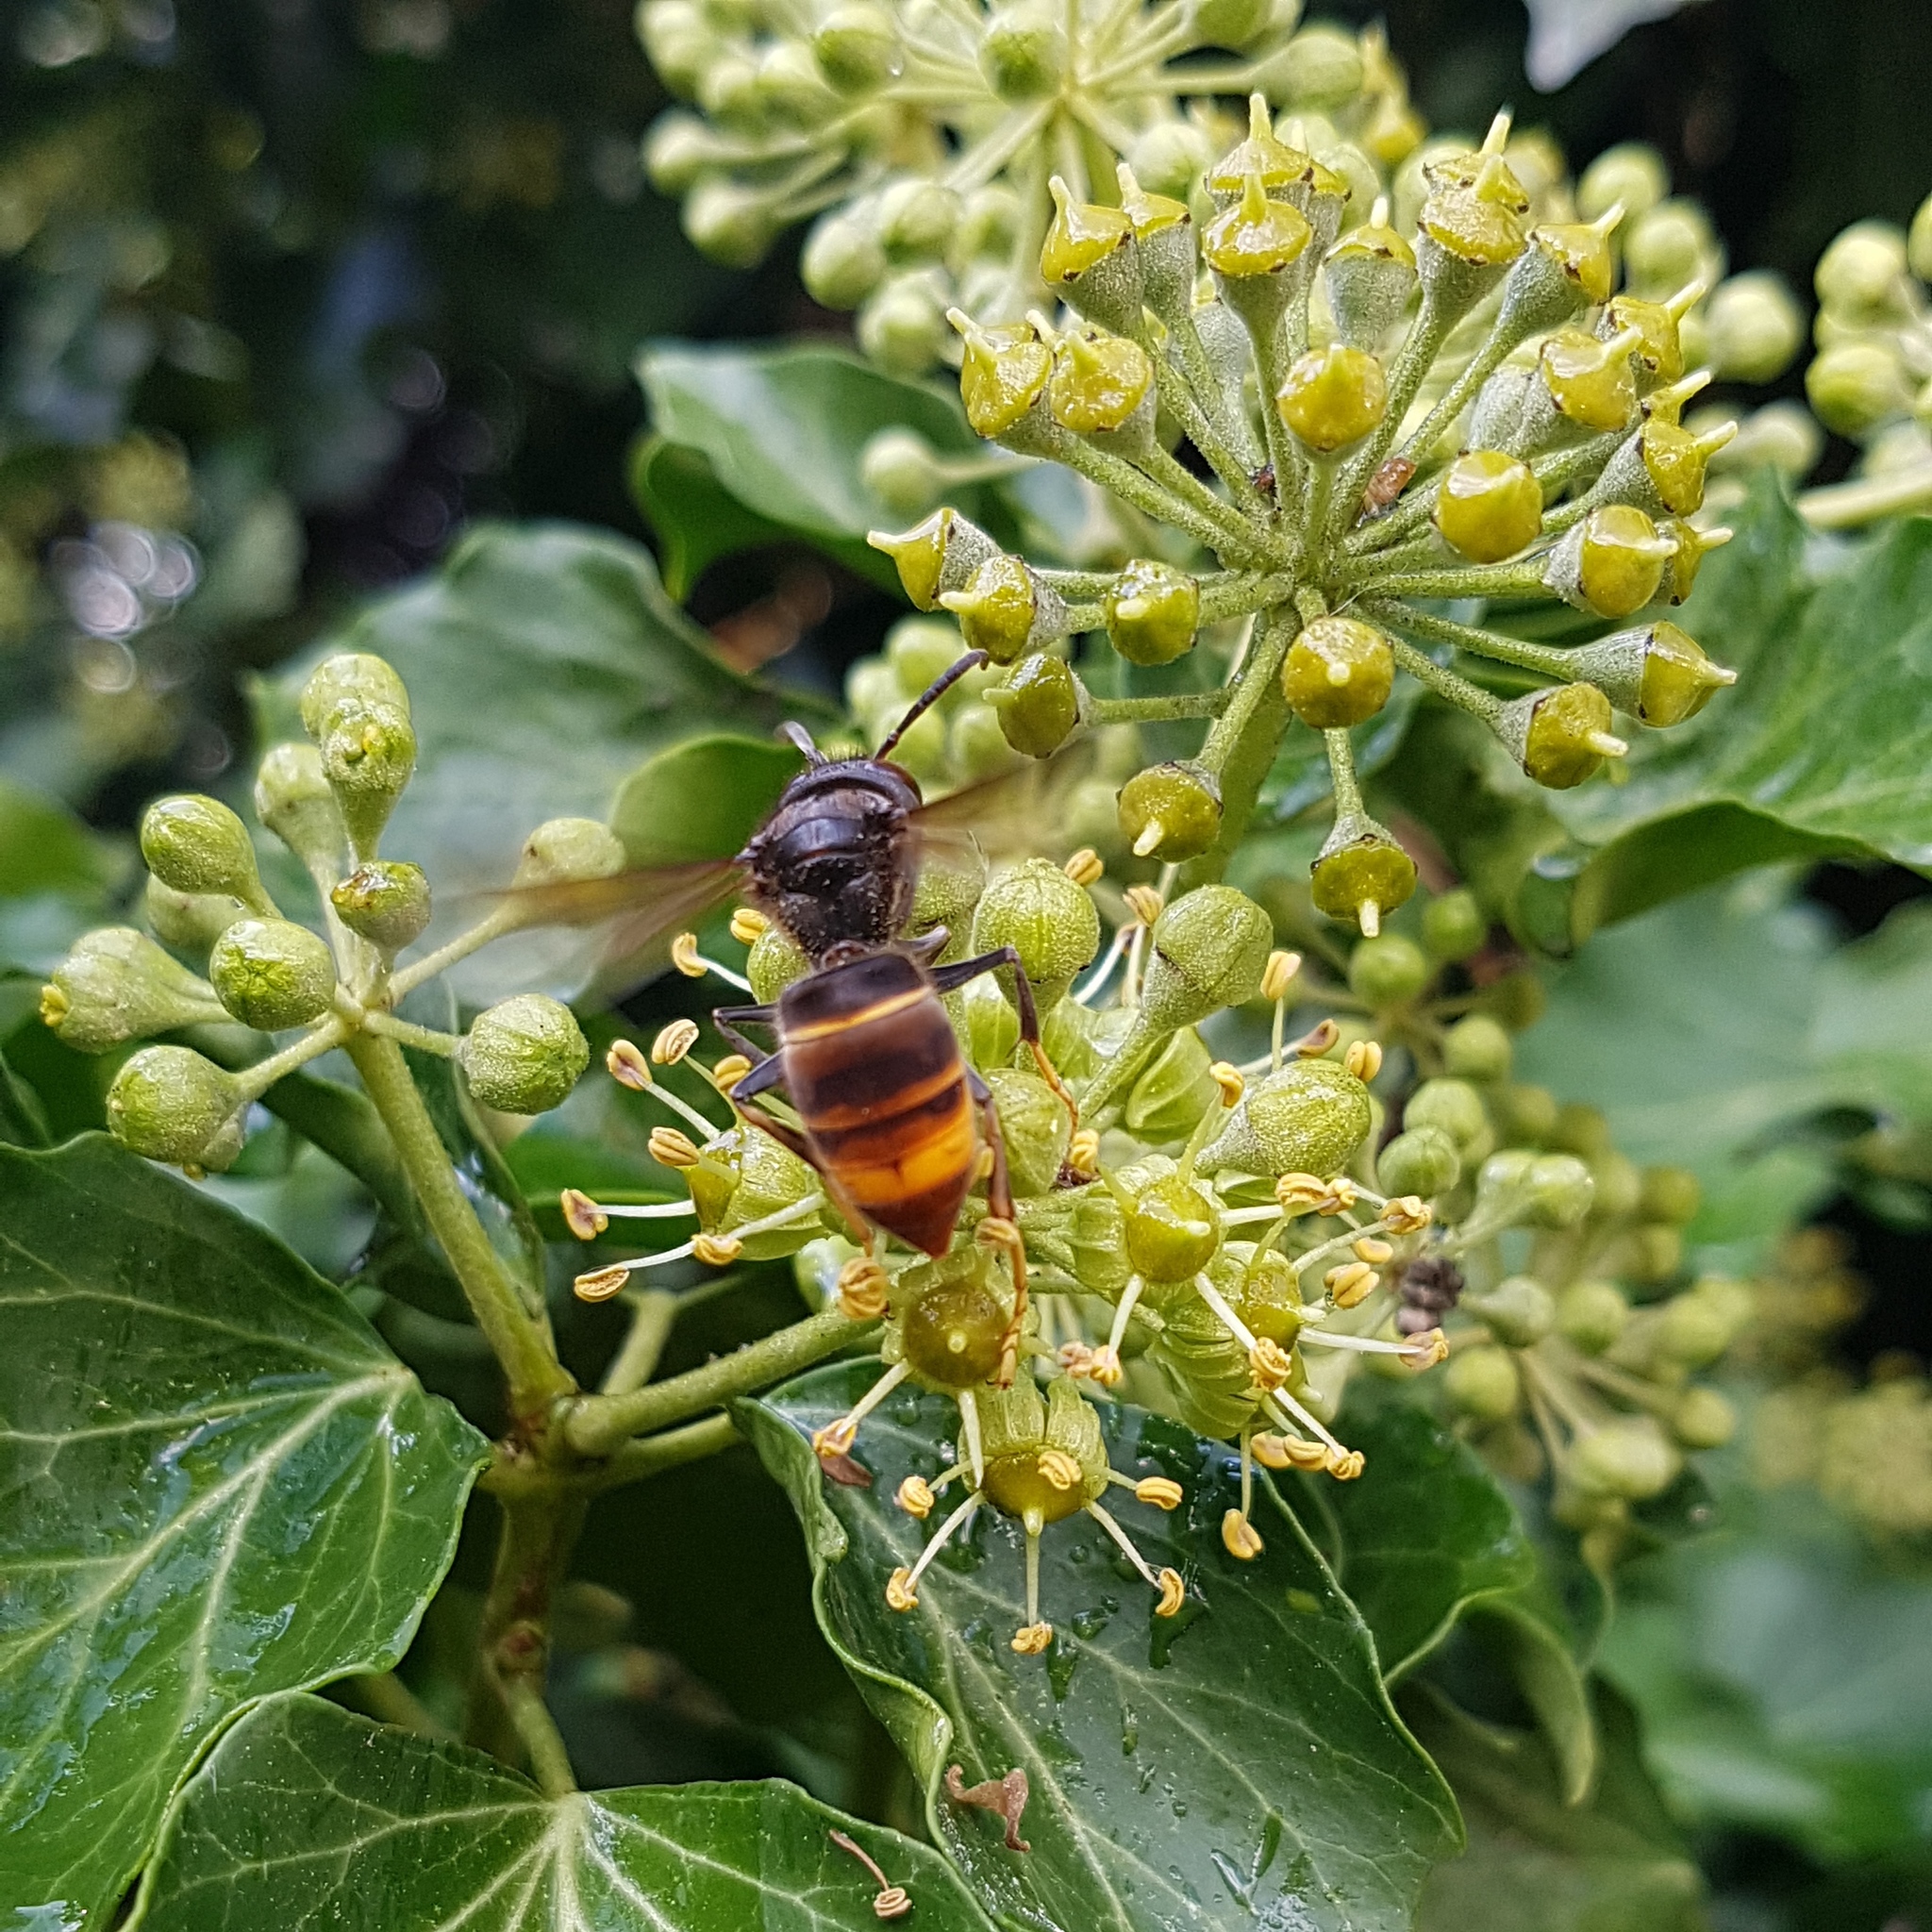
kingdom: Animalia
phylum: Arthropoda
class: Insecta
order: Hymenoptera
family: Vespidae
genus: Vespa
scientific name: Vespa velutina
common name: Asian hornet
